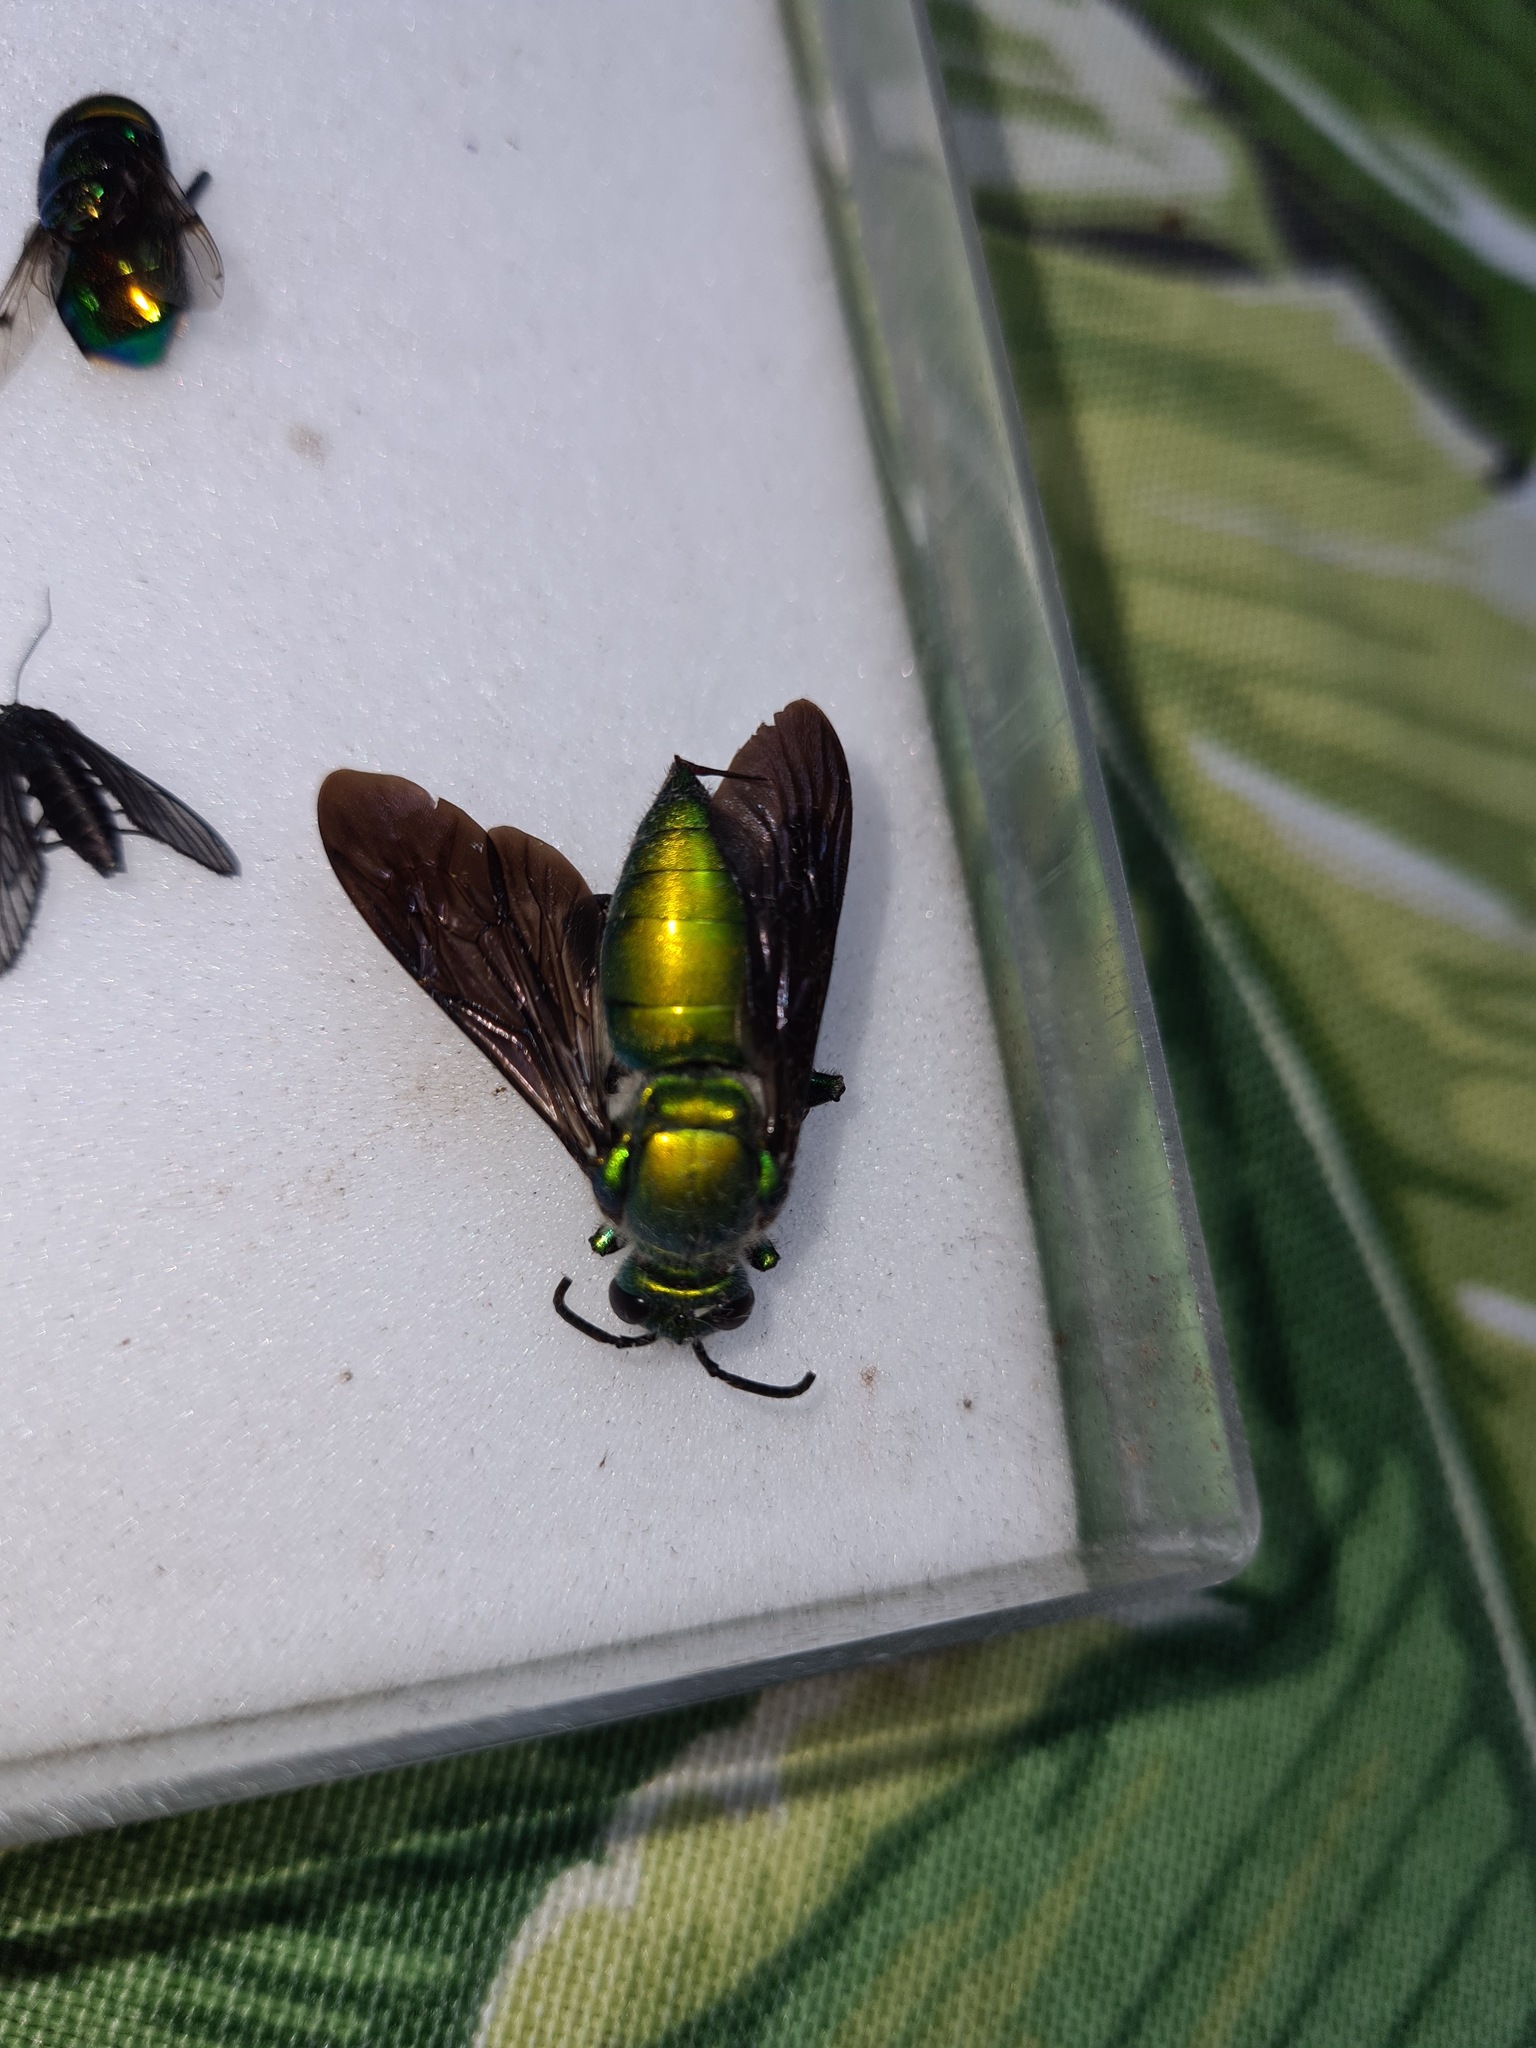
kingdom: Animalia
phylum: Arthropoda
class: Insecta
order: Hymenoptera
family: Apidae
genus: Exaerete
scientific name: Exaerete frontalis
